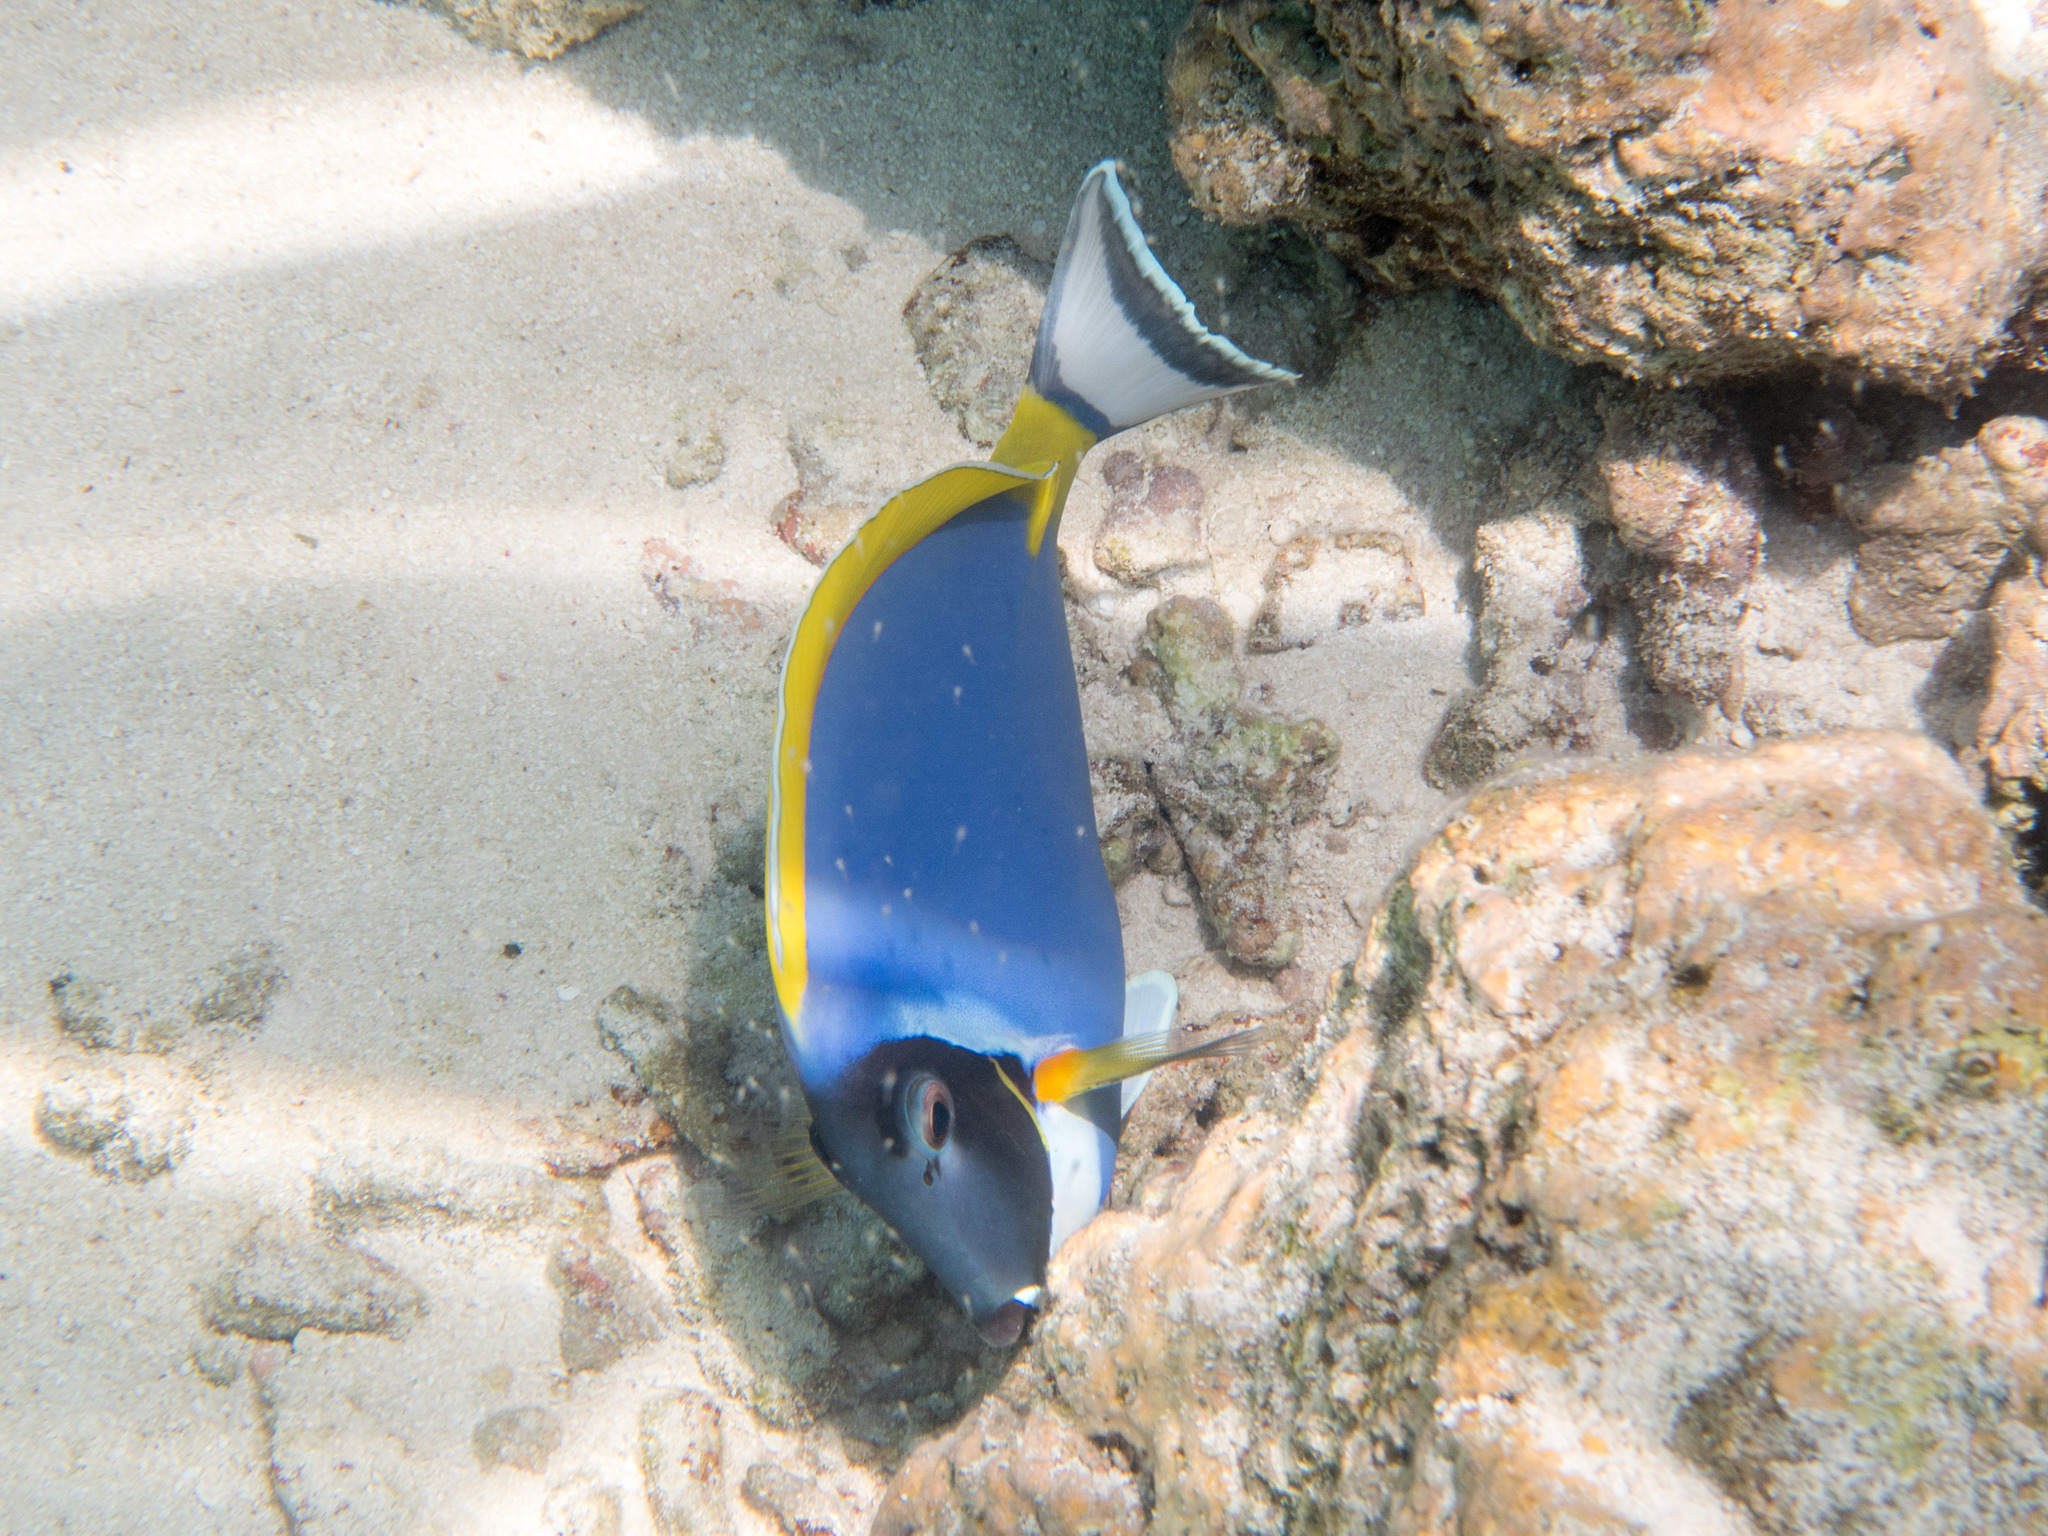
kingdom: Animalia
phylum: Chordata
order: Perciformes
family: Acanthuridae
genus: Acanthurus
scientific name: Acanthurus leucosternon
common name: Blue surgeonfish
